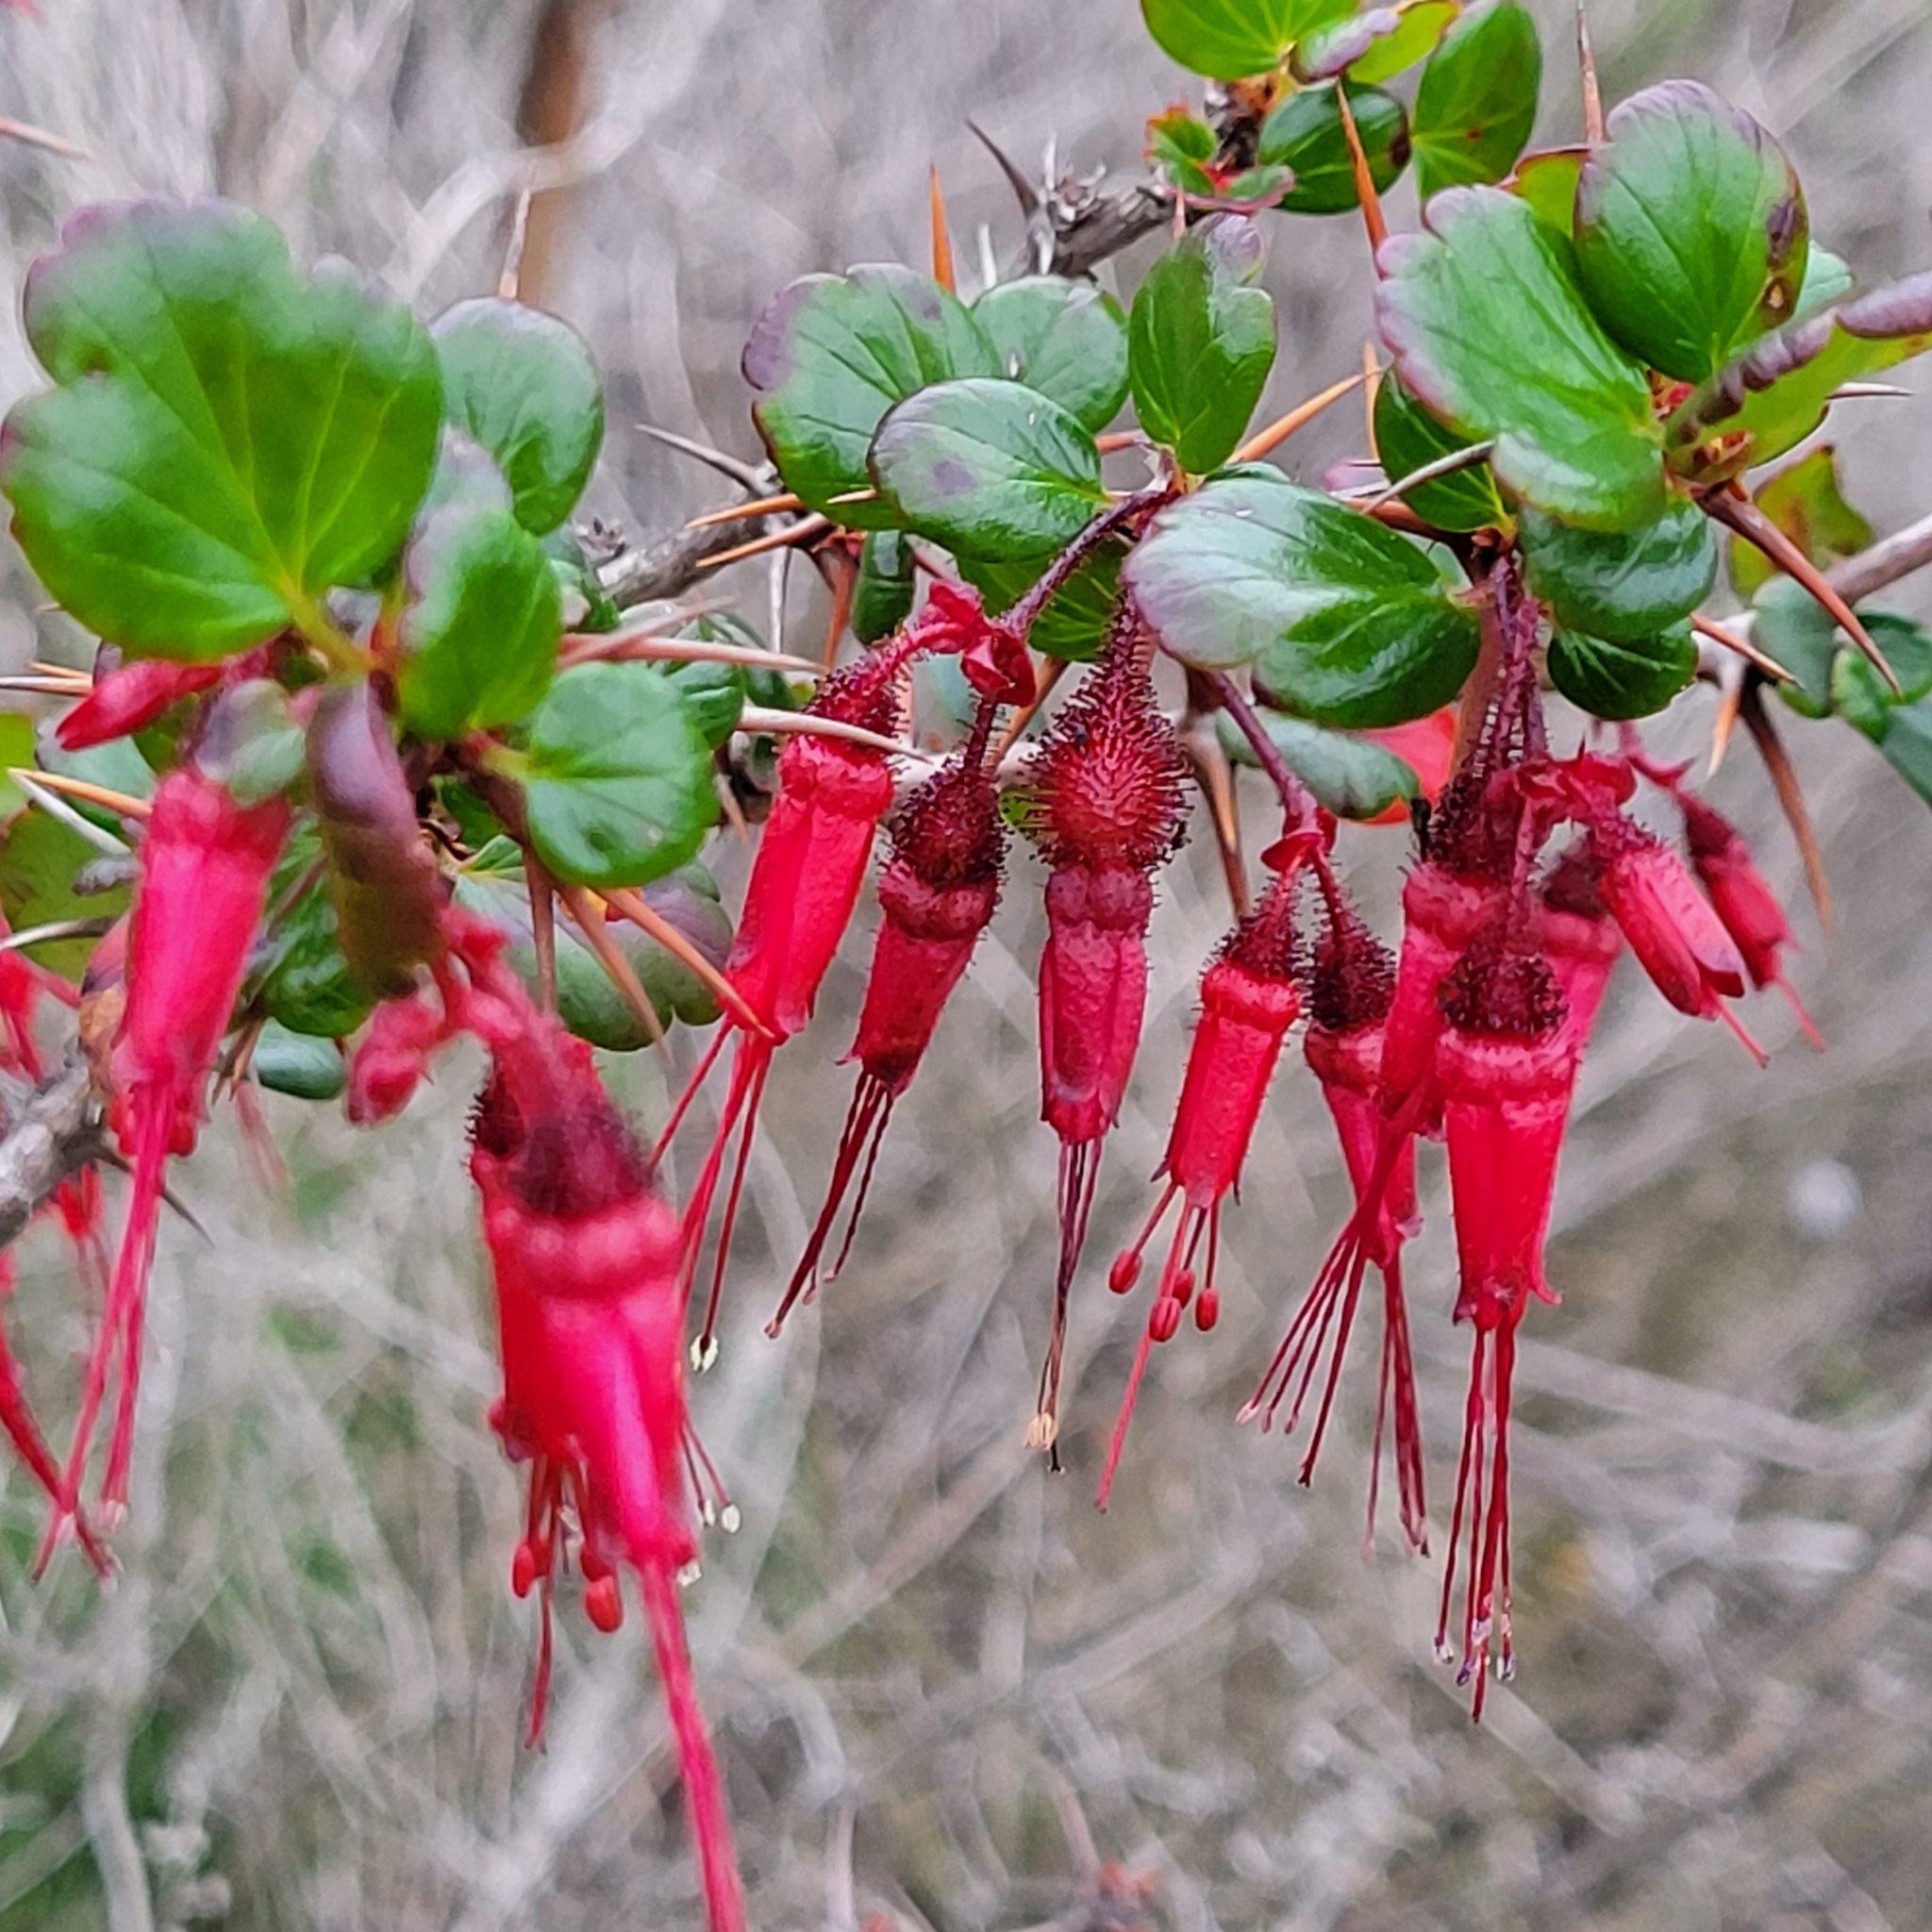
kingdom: Plantae
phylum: Tracheophyta
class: Magnoliopsida
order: Saxifragales
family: Grossulariaceae
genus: Ribes
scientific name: Ribes speciosum
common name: Fuchsia-flower gooseberry
